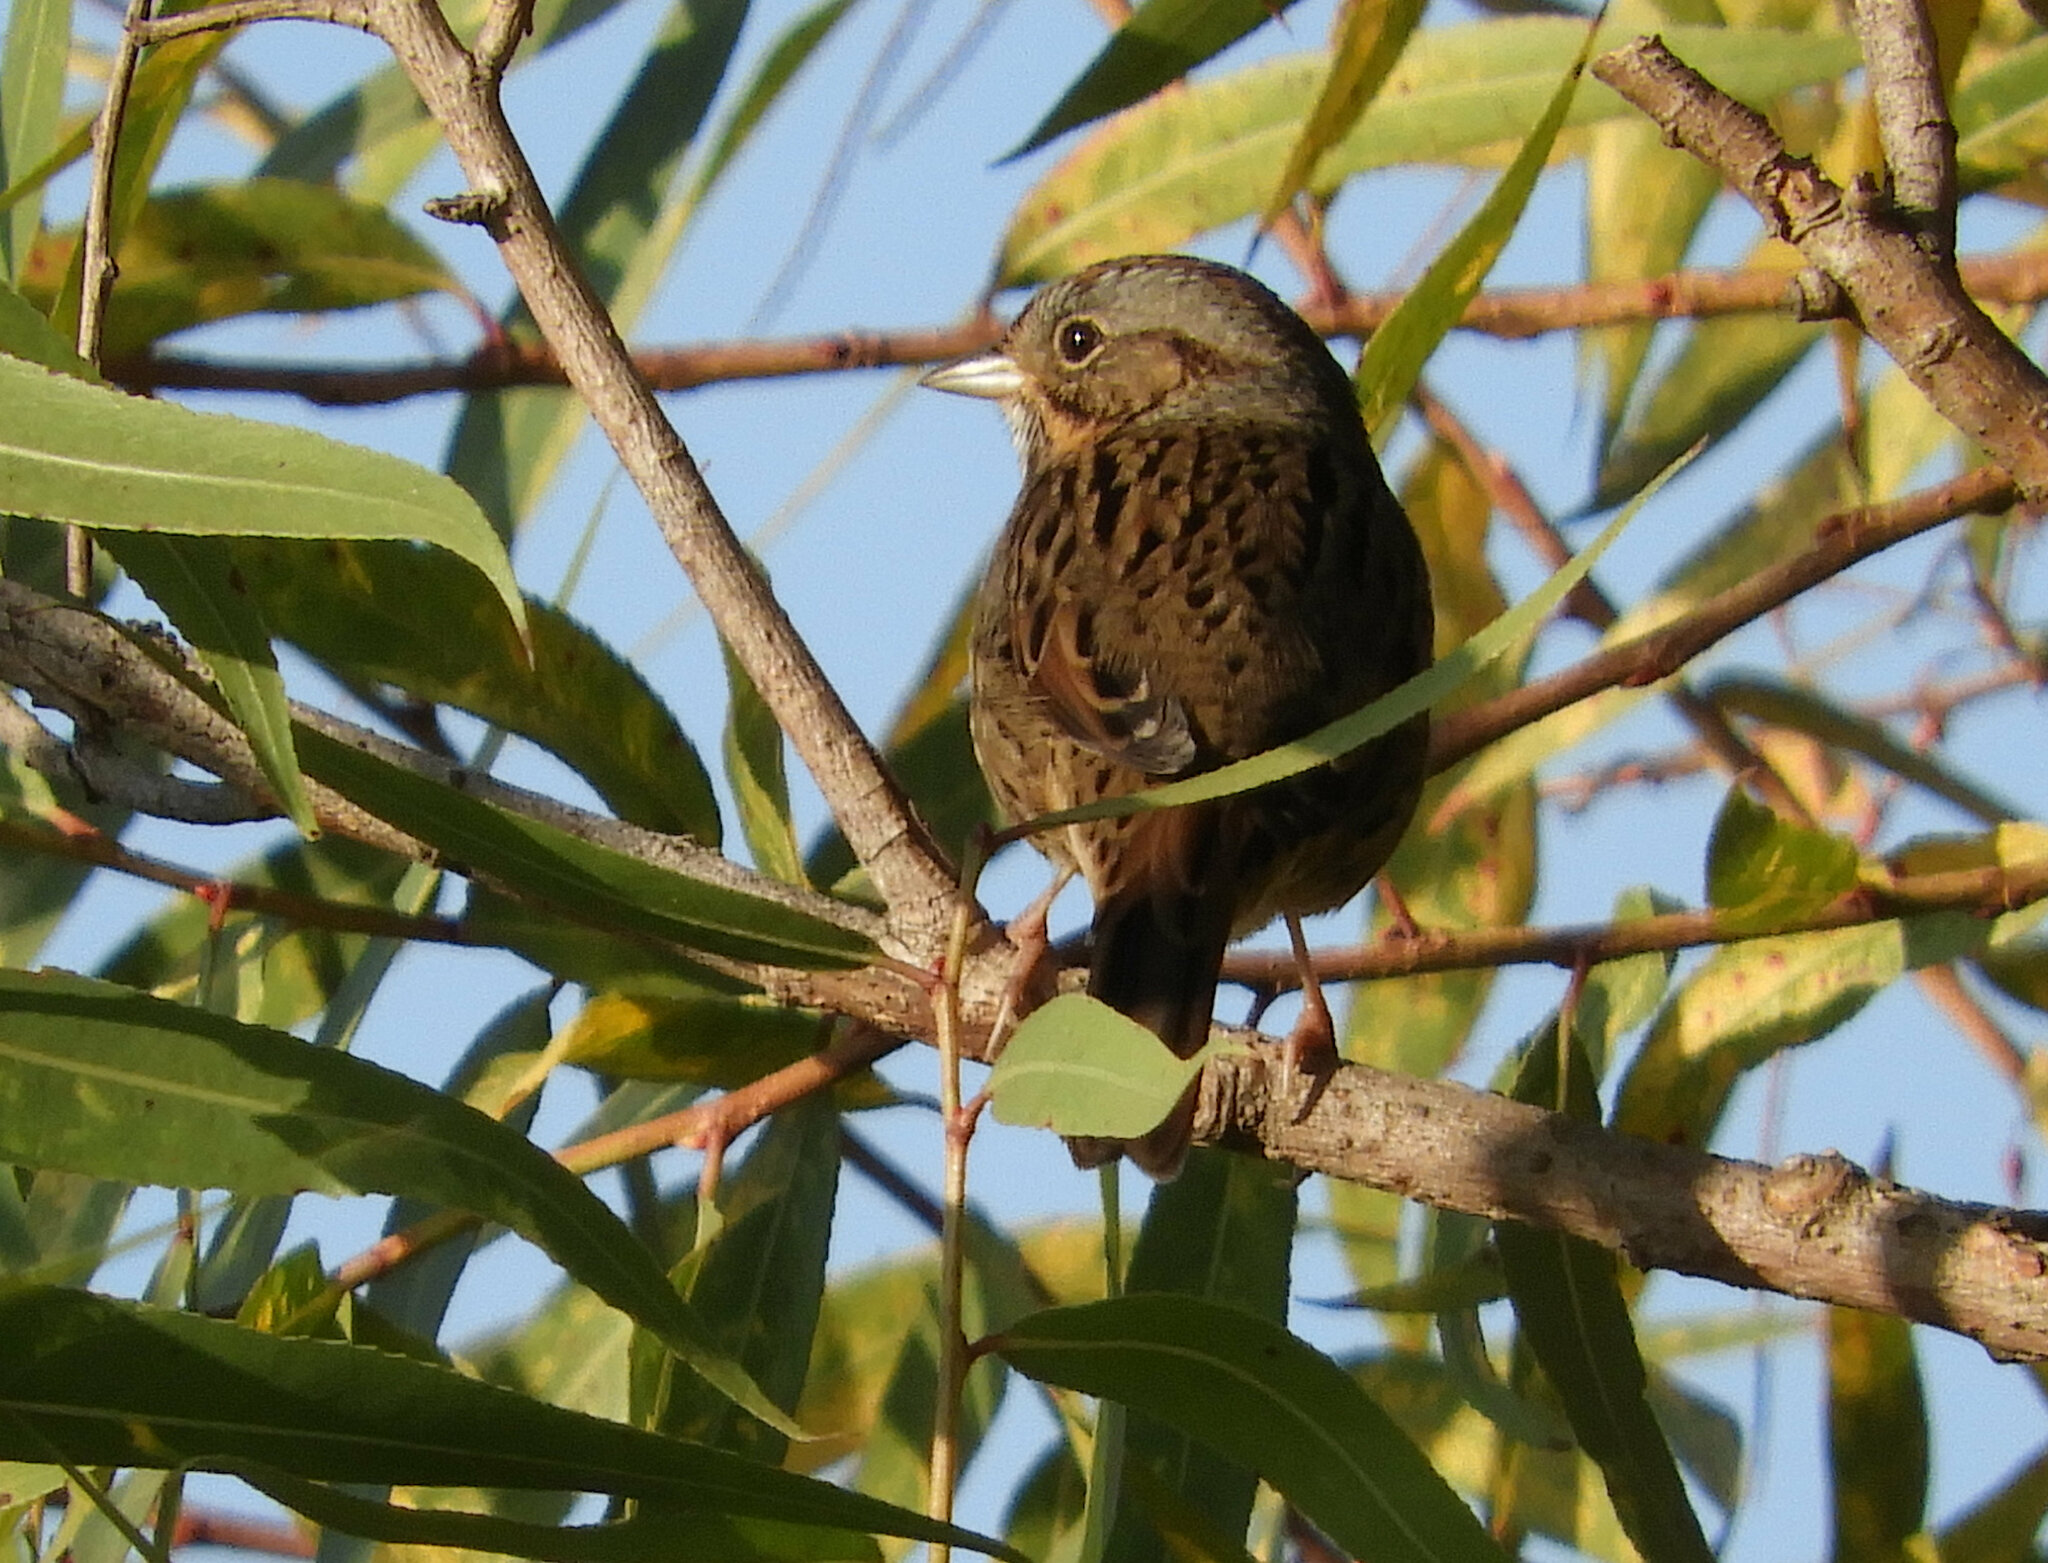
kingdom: Animalia
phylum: Chordata
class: Aves
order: Passeriformes
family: Passerellidae
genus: Melospiza
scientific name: Melospiza lincolnii
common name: Lincoln's sparrow
